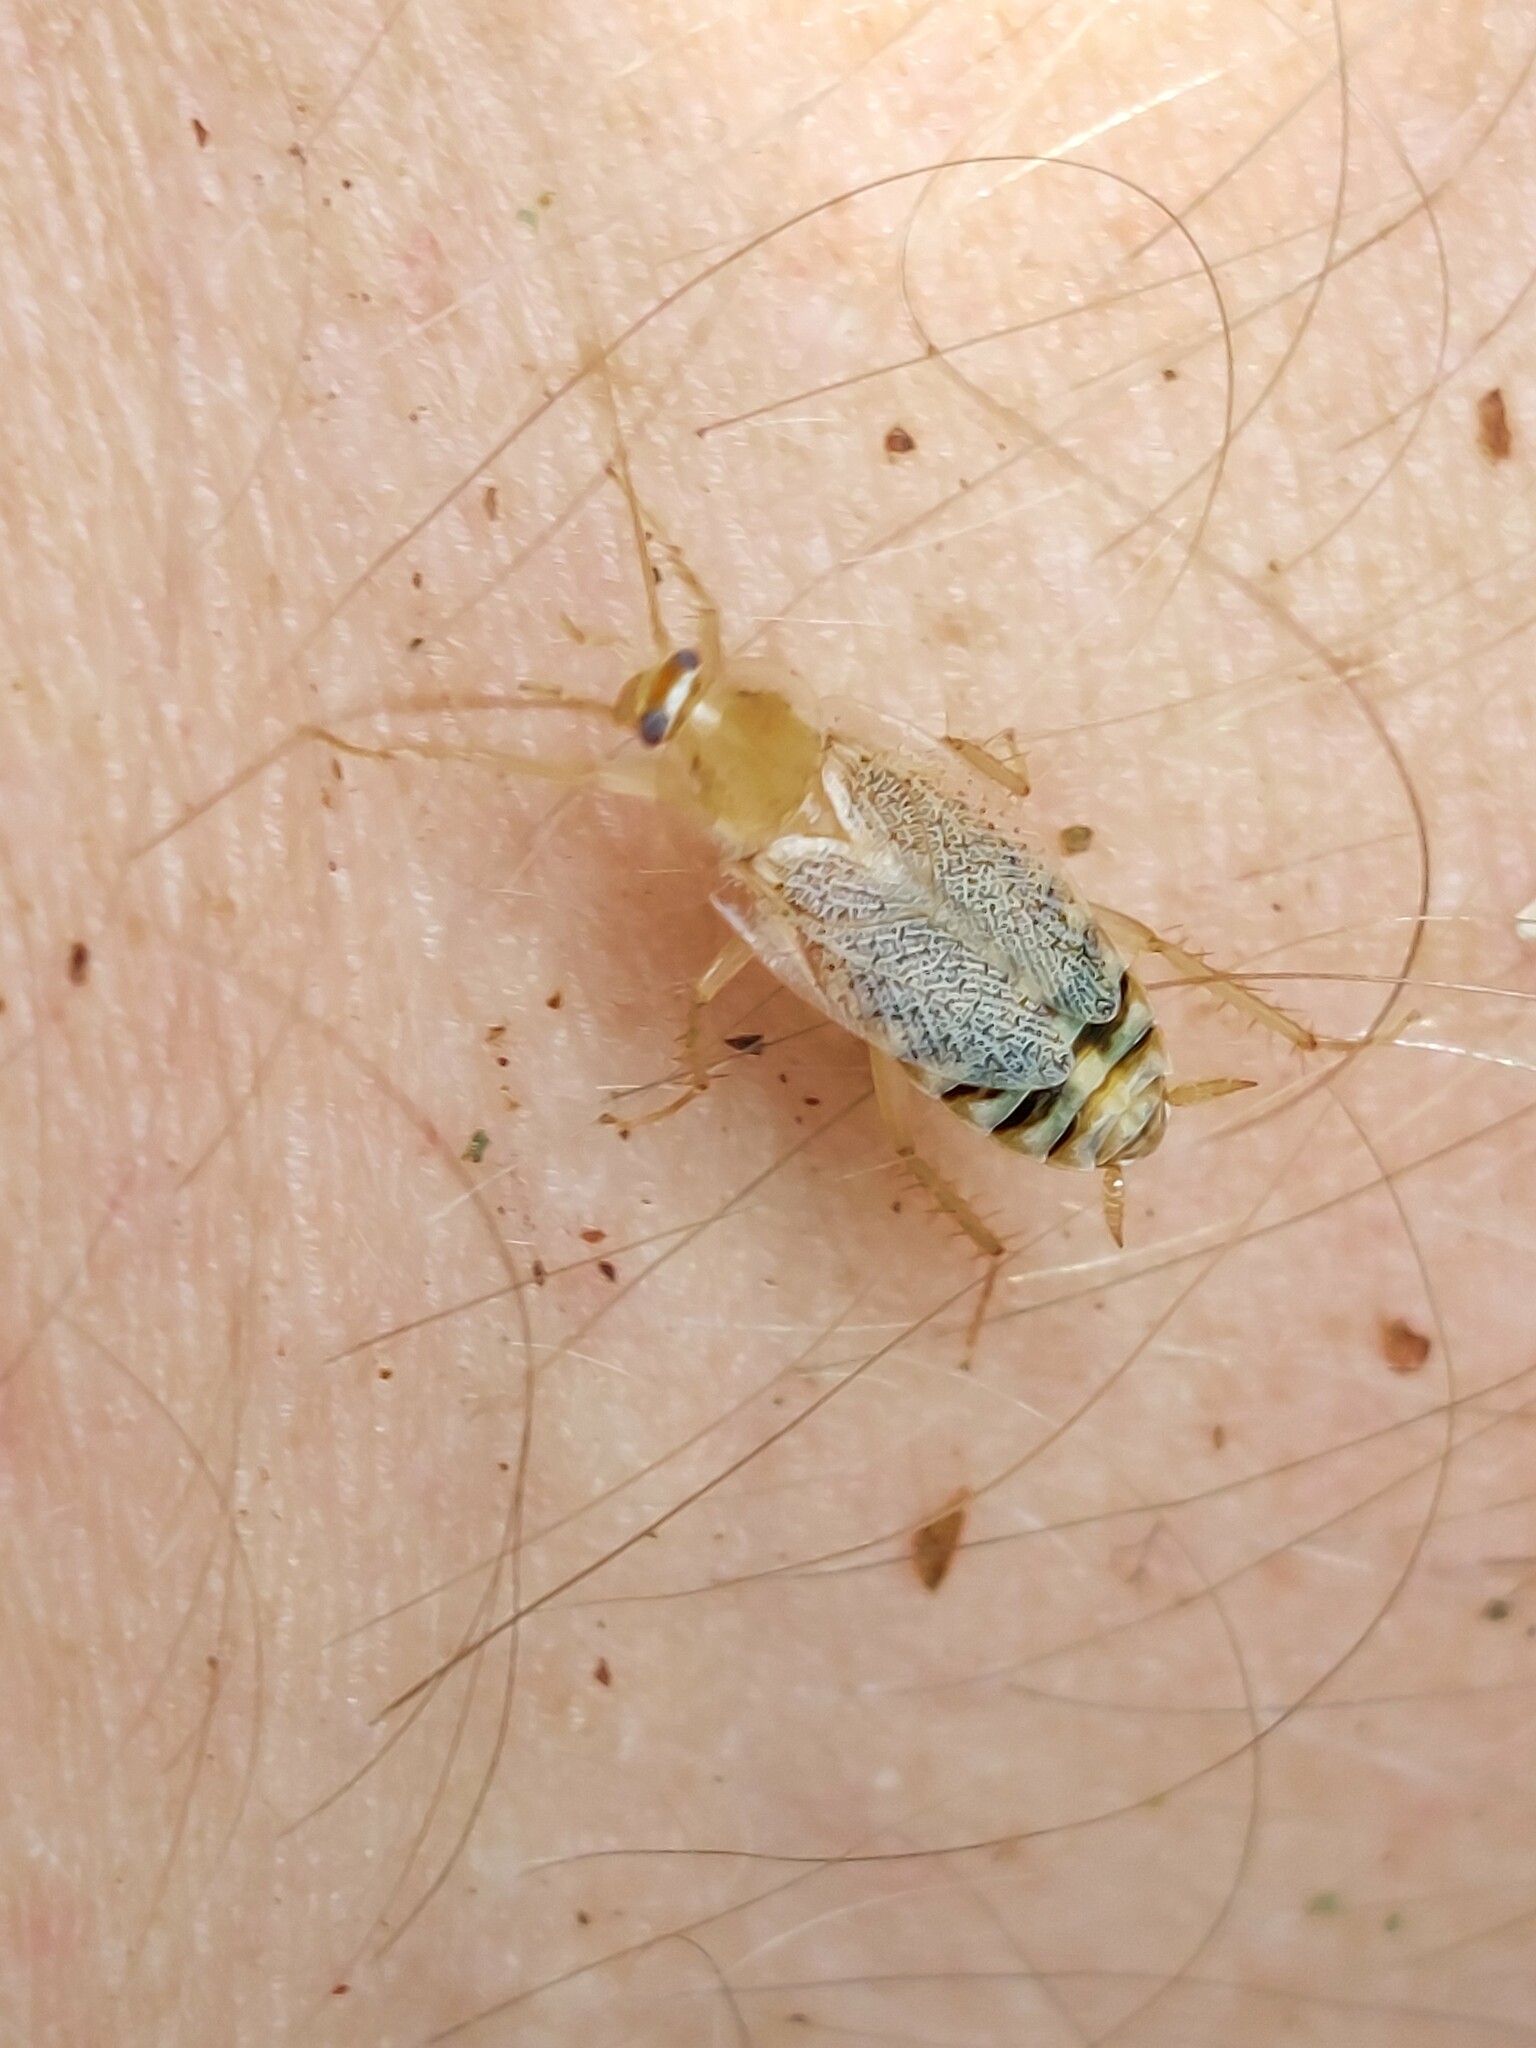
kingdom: Animalia
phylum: Arthropoda
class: Insecta
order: Blattodea
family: Ectobiidae
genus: Planuncus
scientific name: Planuncus tingitanus
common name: Variable cockroach
